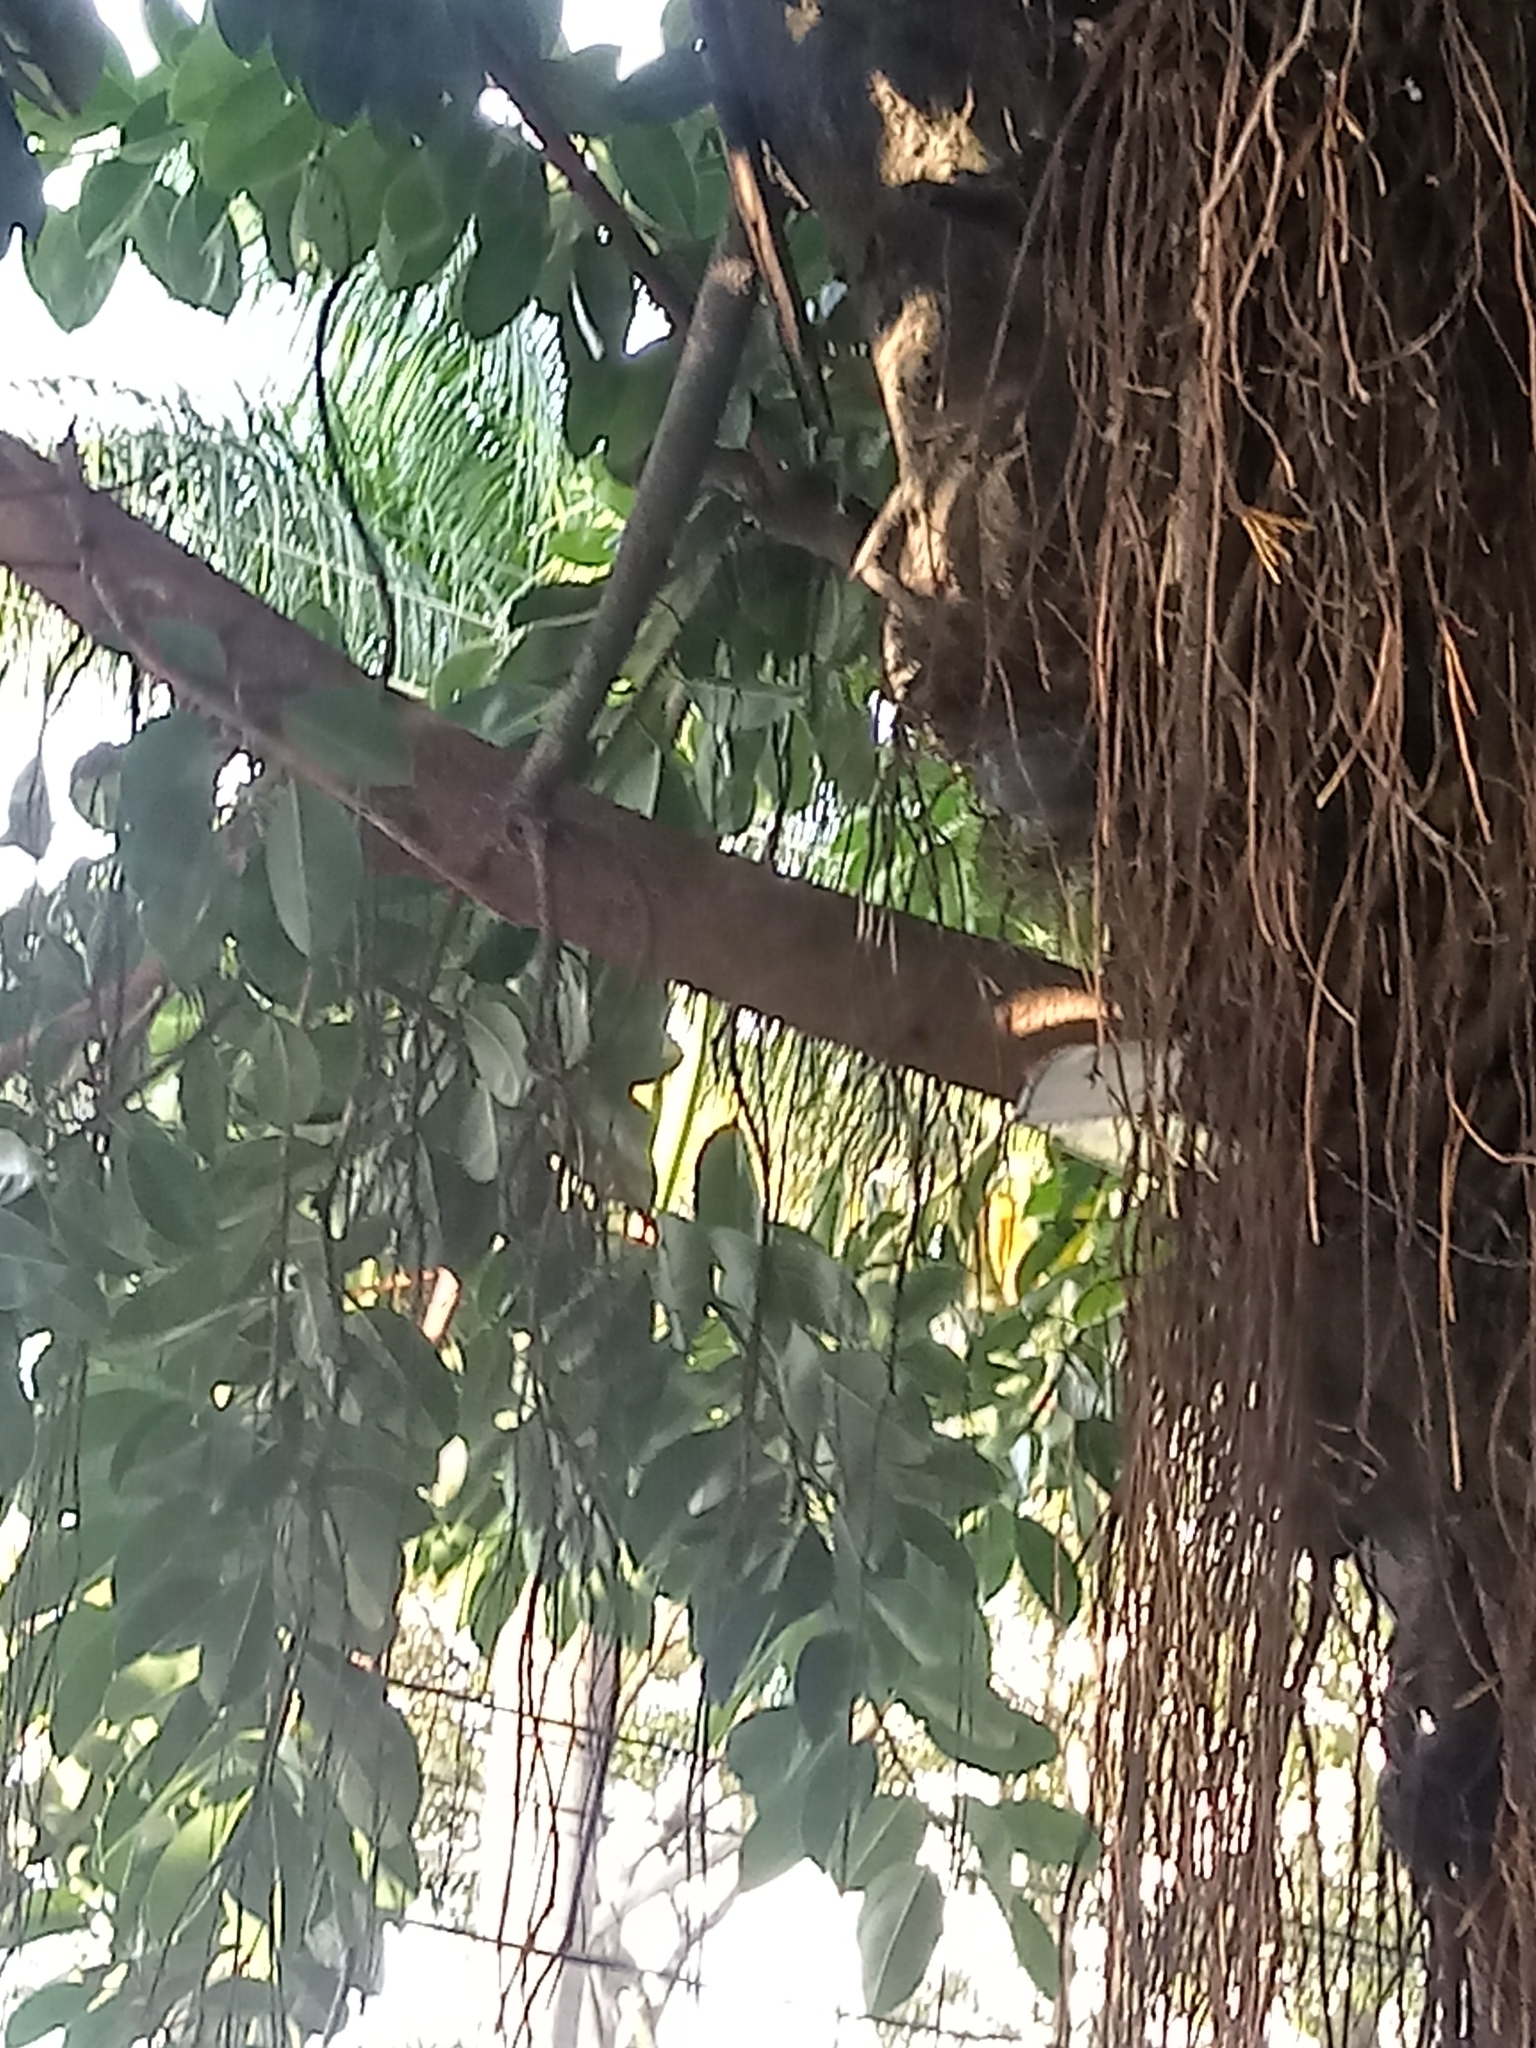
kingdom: Plantae
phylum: Tracheophyta
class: Magnoliopsida
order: Rosales
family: Moraceae
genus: Ficus
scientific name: Ficus elastica
